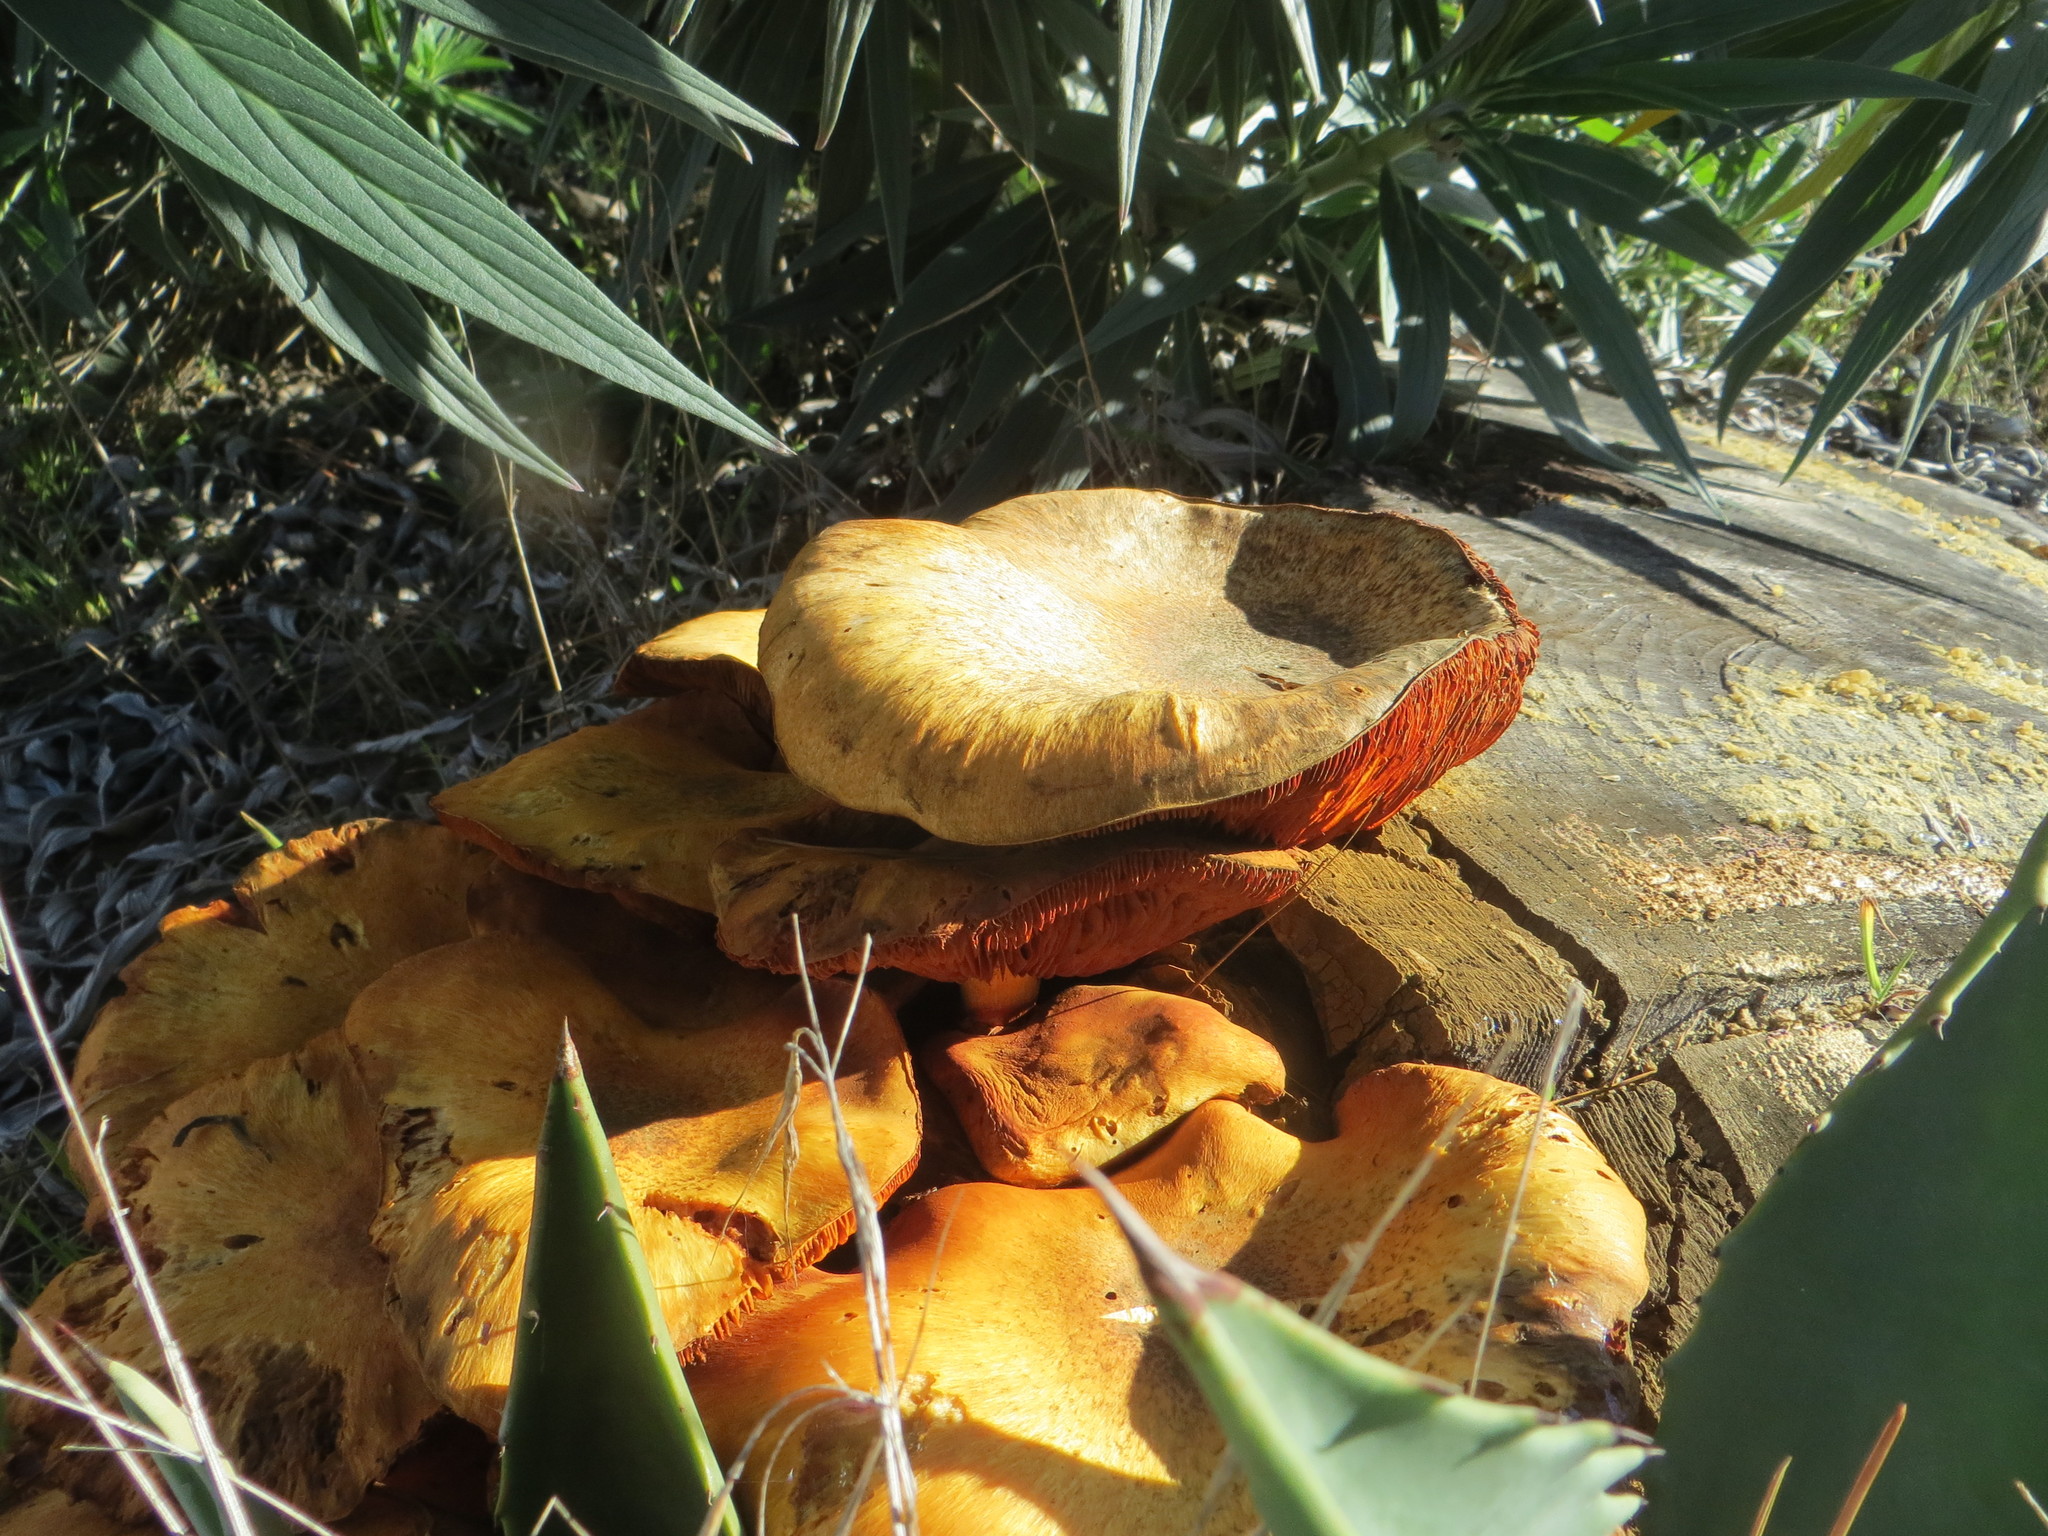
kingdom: Fungi
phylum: Basidiomycota
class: Agaricomycetes
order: Agaricales
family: Hymenogastraceae
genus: Gymnopilus
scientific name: Gymnopilus ventricosus
